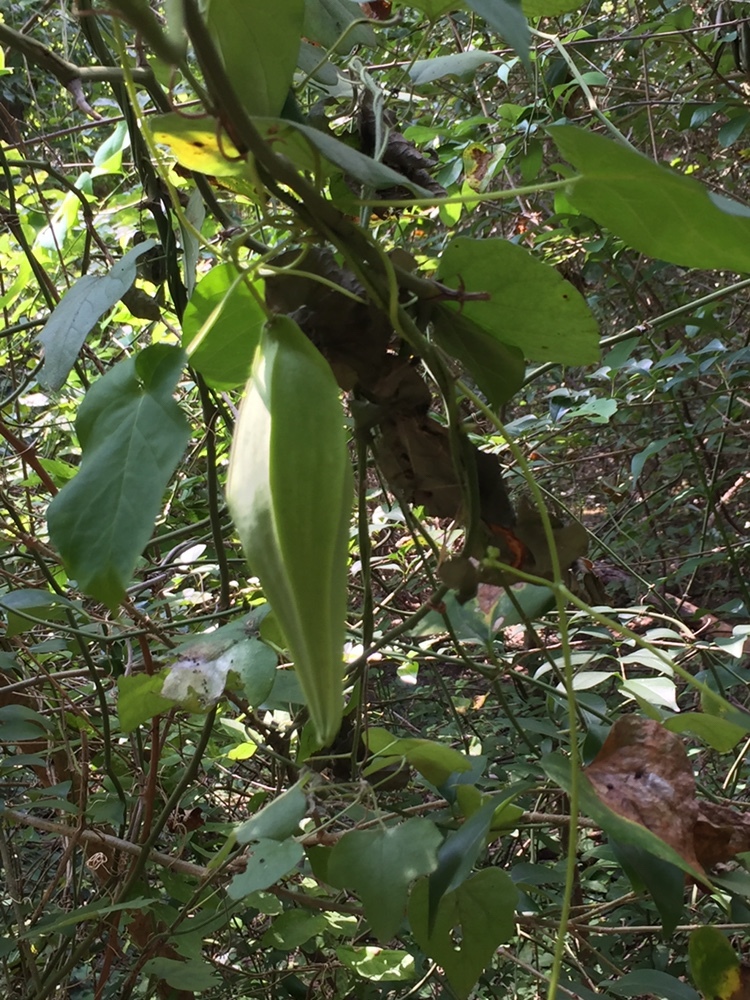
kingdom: Plantae
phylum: Tracheophyta
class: Magnoliopsida
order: Gentianales
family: Apocynaceae
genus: Gonolobus
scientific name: Gonolobus suberosus
